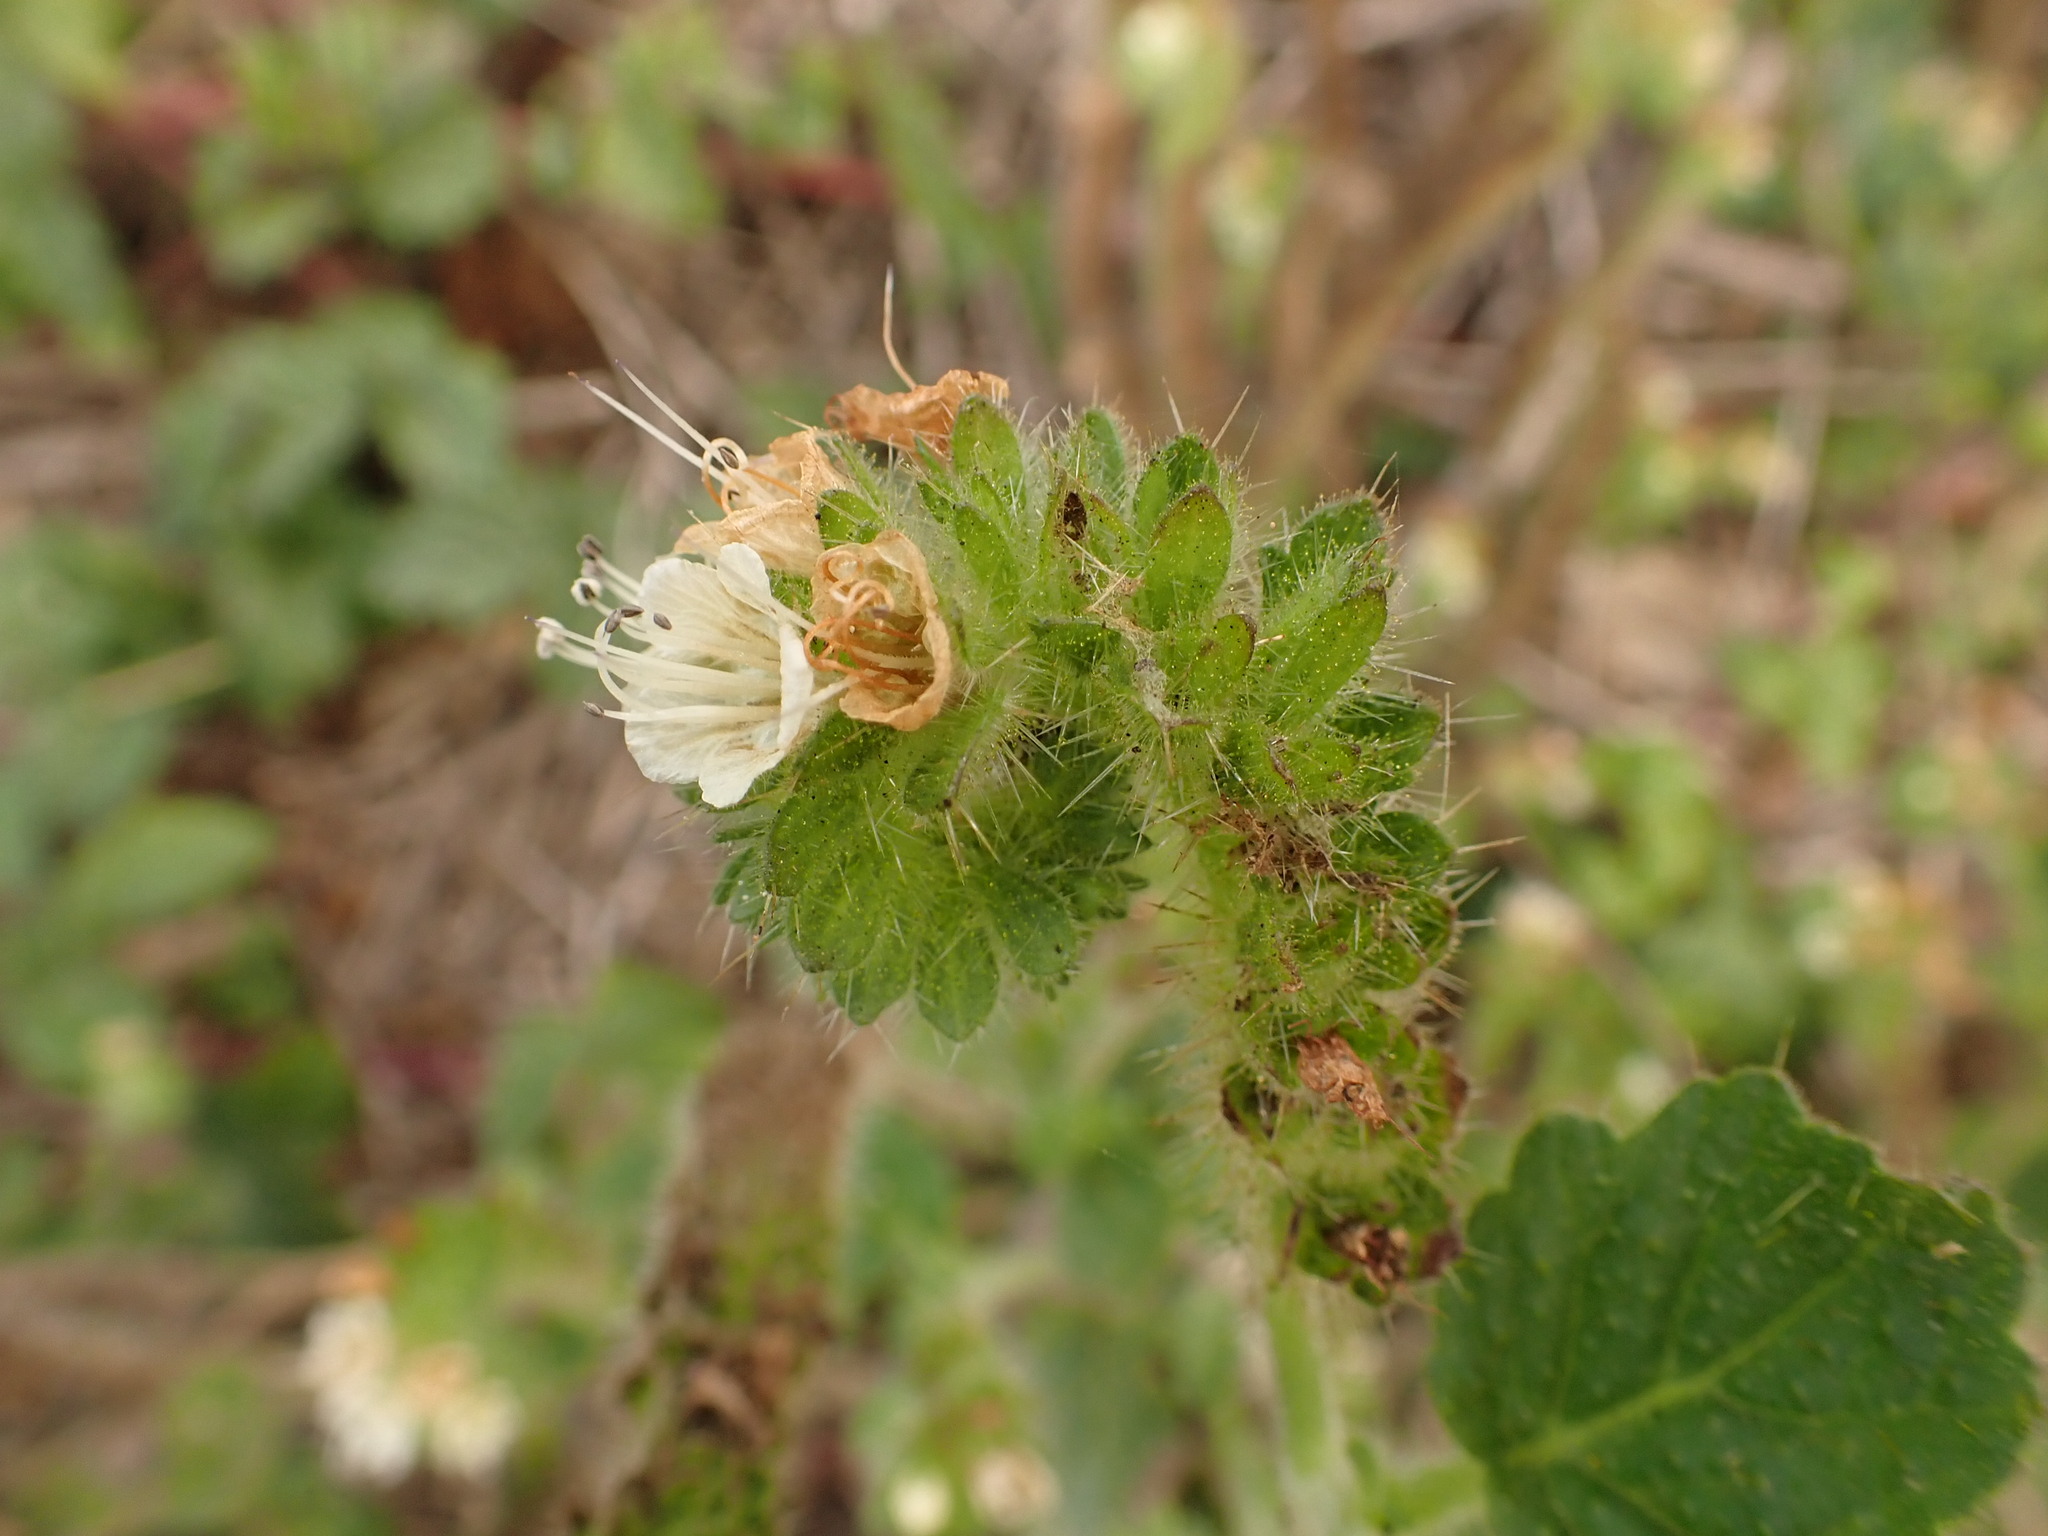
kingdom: Plantae
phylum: Tracheophyta
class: Magnoliopsida
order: Boraginales
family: Hydrophyllaceae
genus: Phacelia
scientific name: Phacelia malvifolia
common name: Mallow-leaf phacelia
